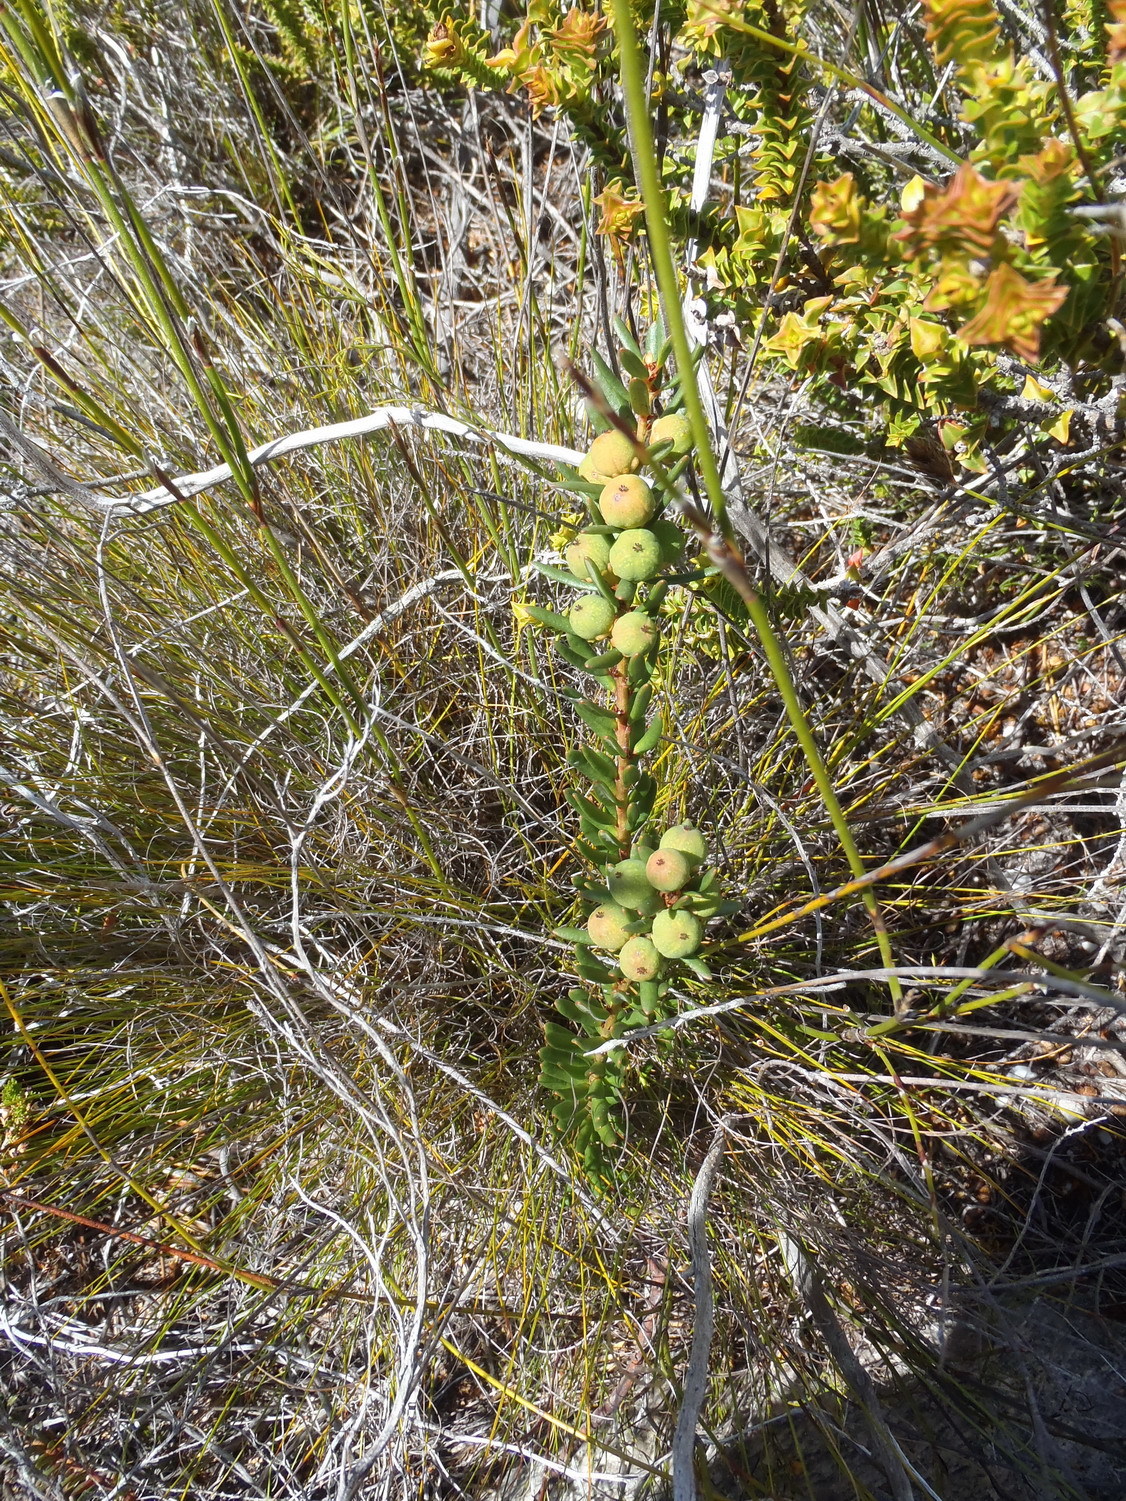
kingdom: Plantae
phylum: Tracheophyta
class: Magnoliopsida
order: Malpighiales
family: Peraceae
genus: Clutia
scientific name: Clutia polygonoides
